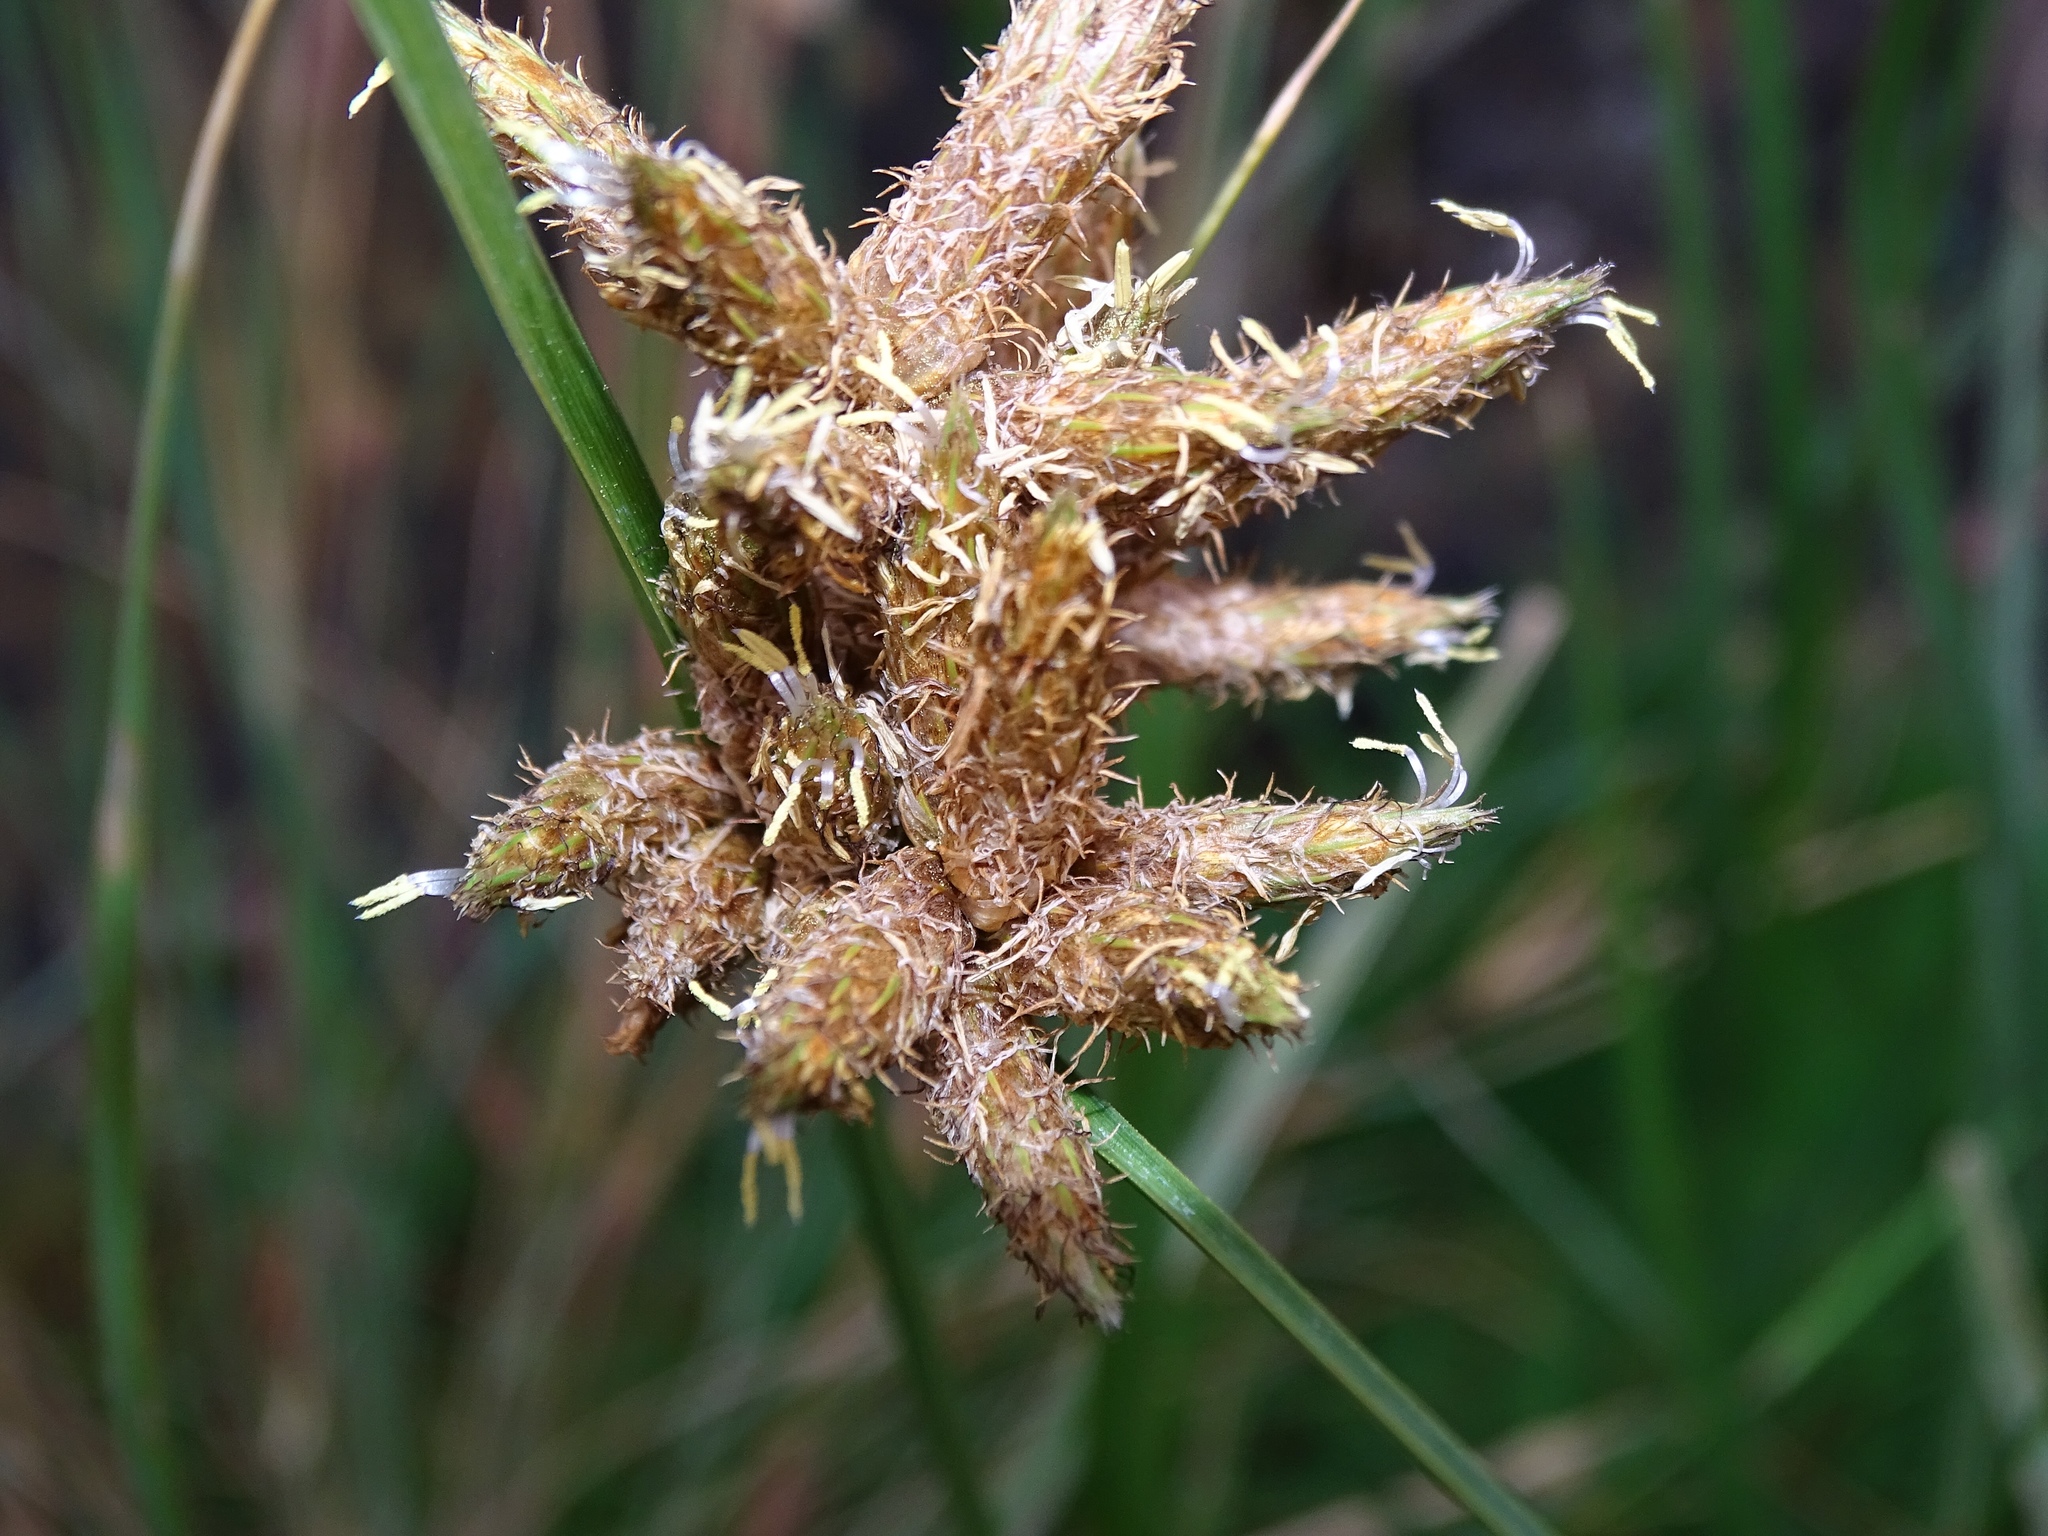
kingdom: Plantae
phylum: Tracheophyta
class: Liliopsida
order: Poales
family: Cyperaceae
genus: Bolboschoenus
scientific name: Bolboschoenus maritimus
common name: Sea club-rush
